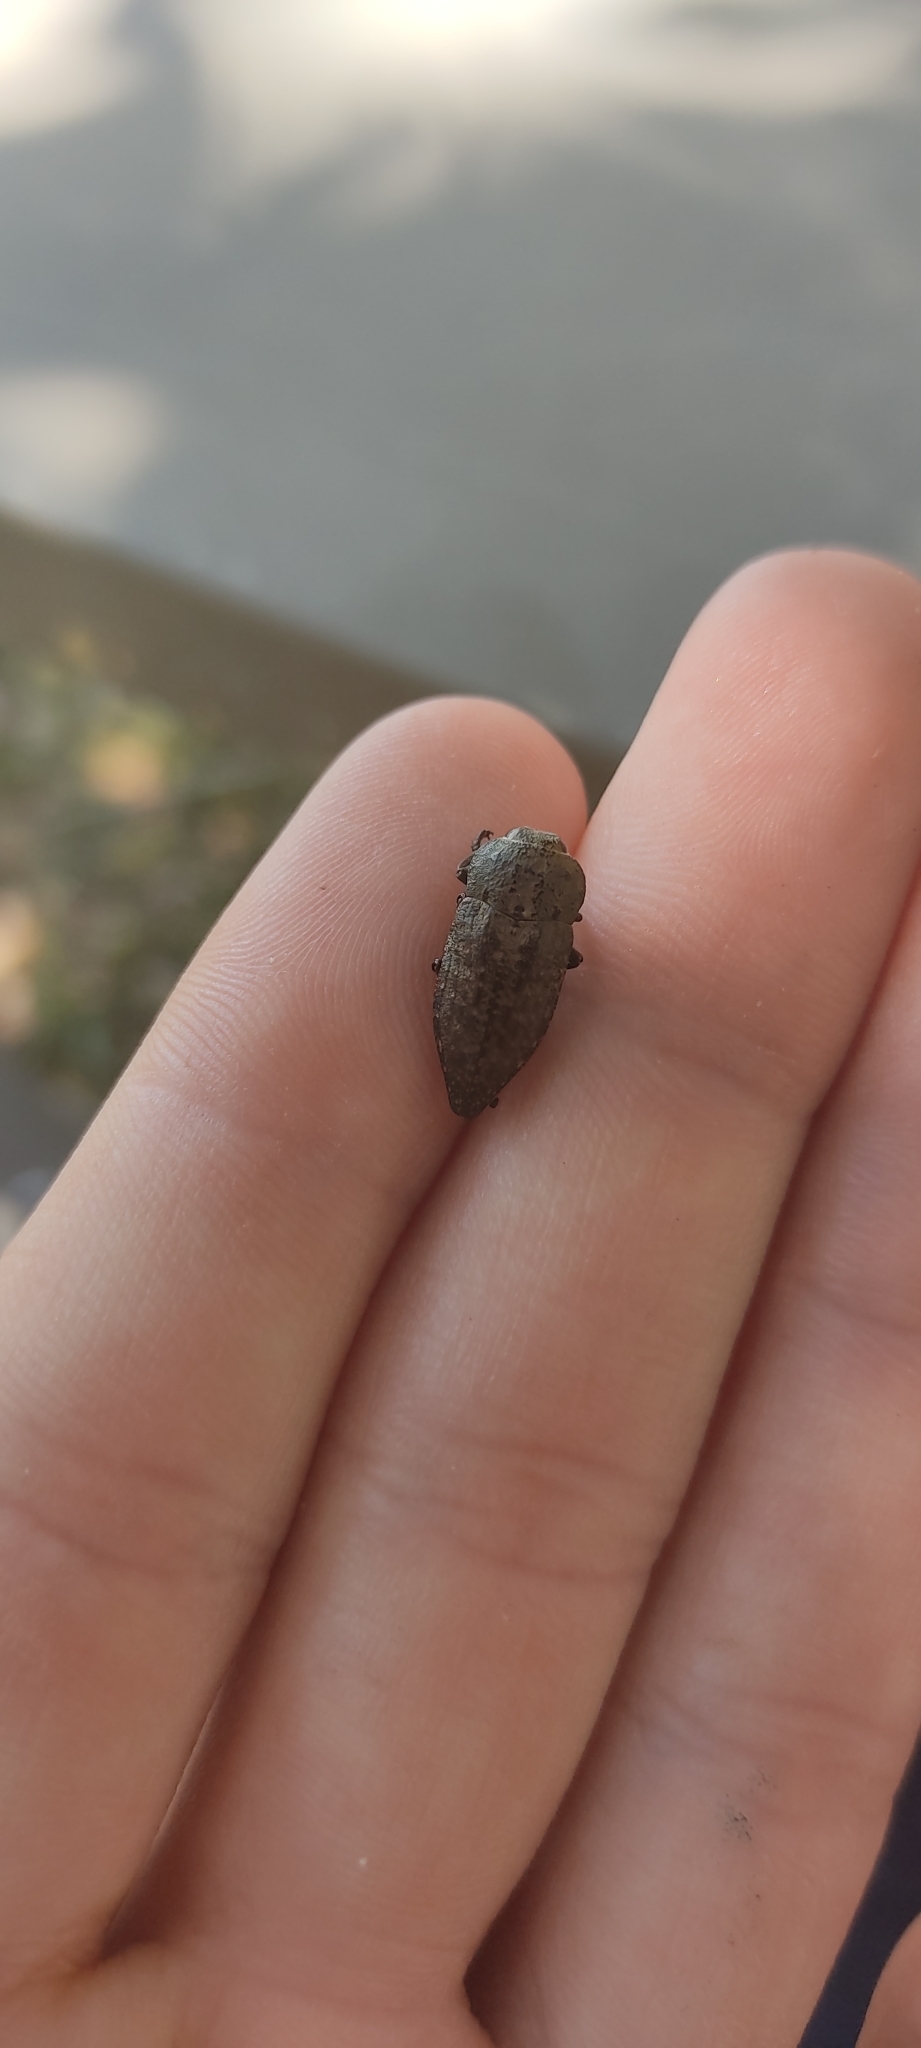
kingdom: Animalia
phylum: Arthropoda
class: Insecta
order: Coleoptera
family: Buprestidae
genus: Capnodis
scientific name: Capnodis tenebricosa
